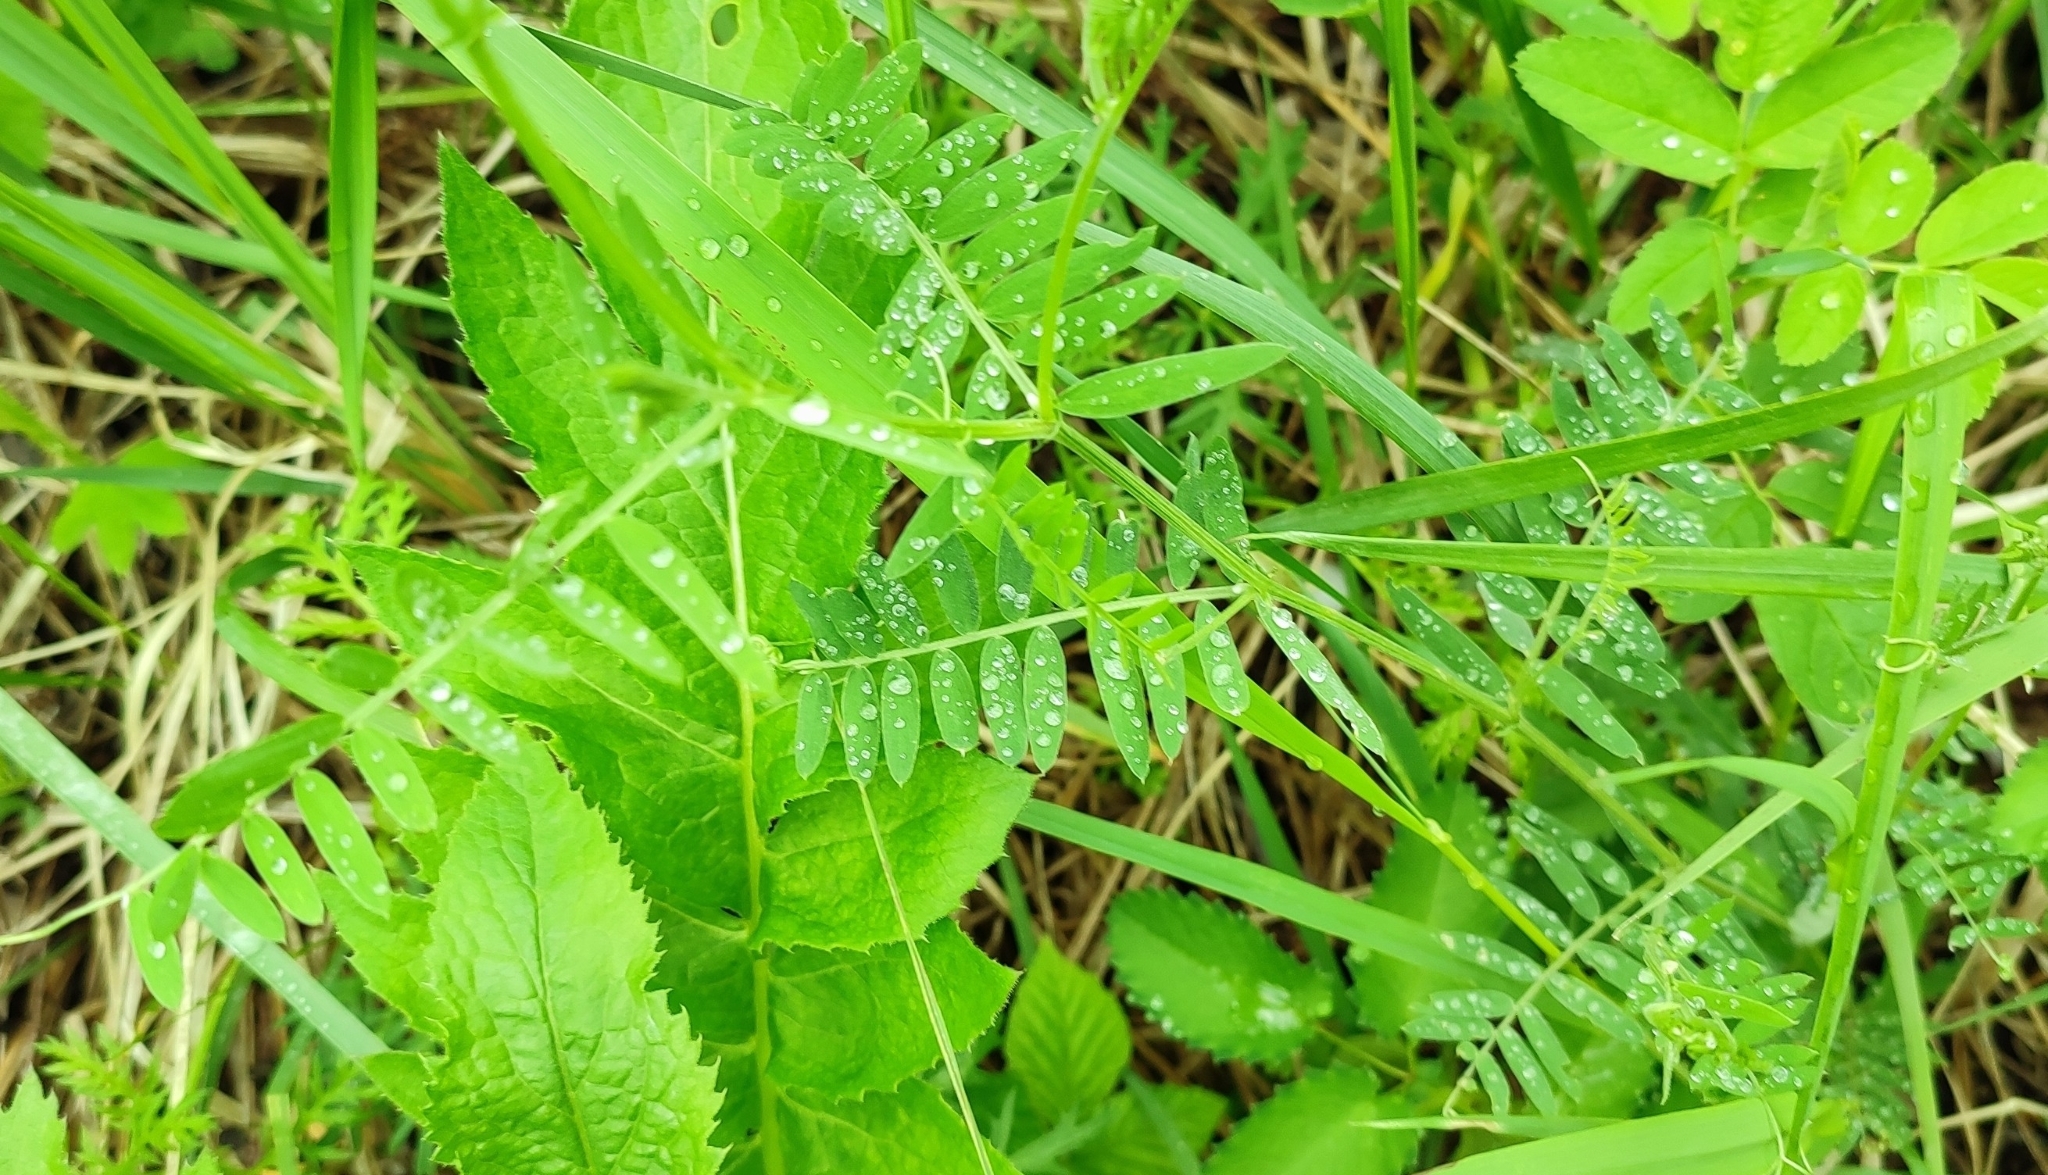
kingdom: Plantae
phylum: Tracheophyta
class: Magnoliopsida
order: Fabales
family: Fabaceae
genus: Vicia
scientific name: Vicia cracca
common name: Bird vetch
